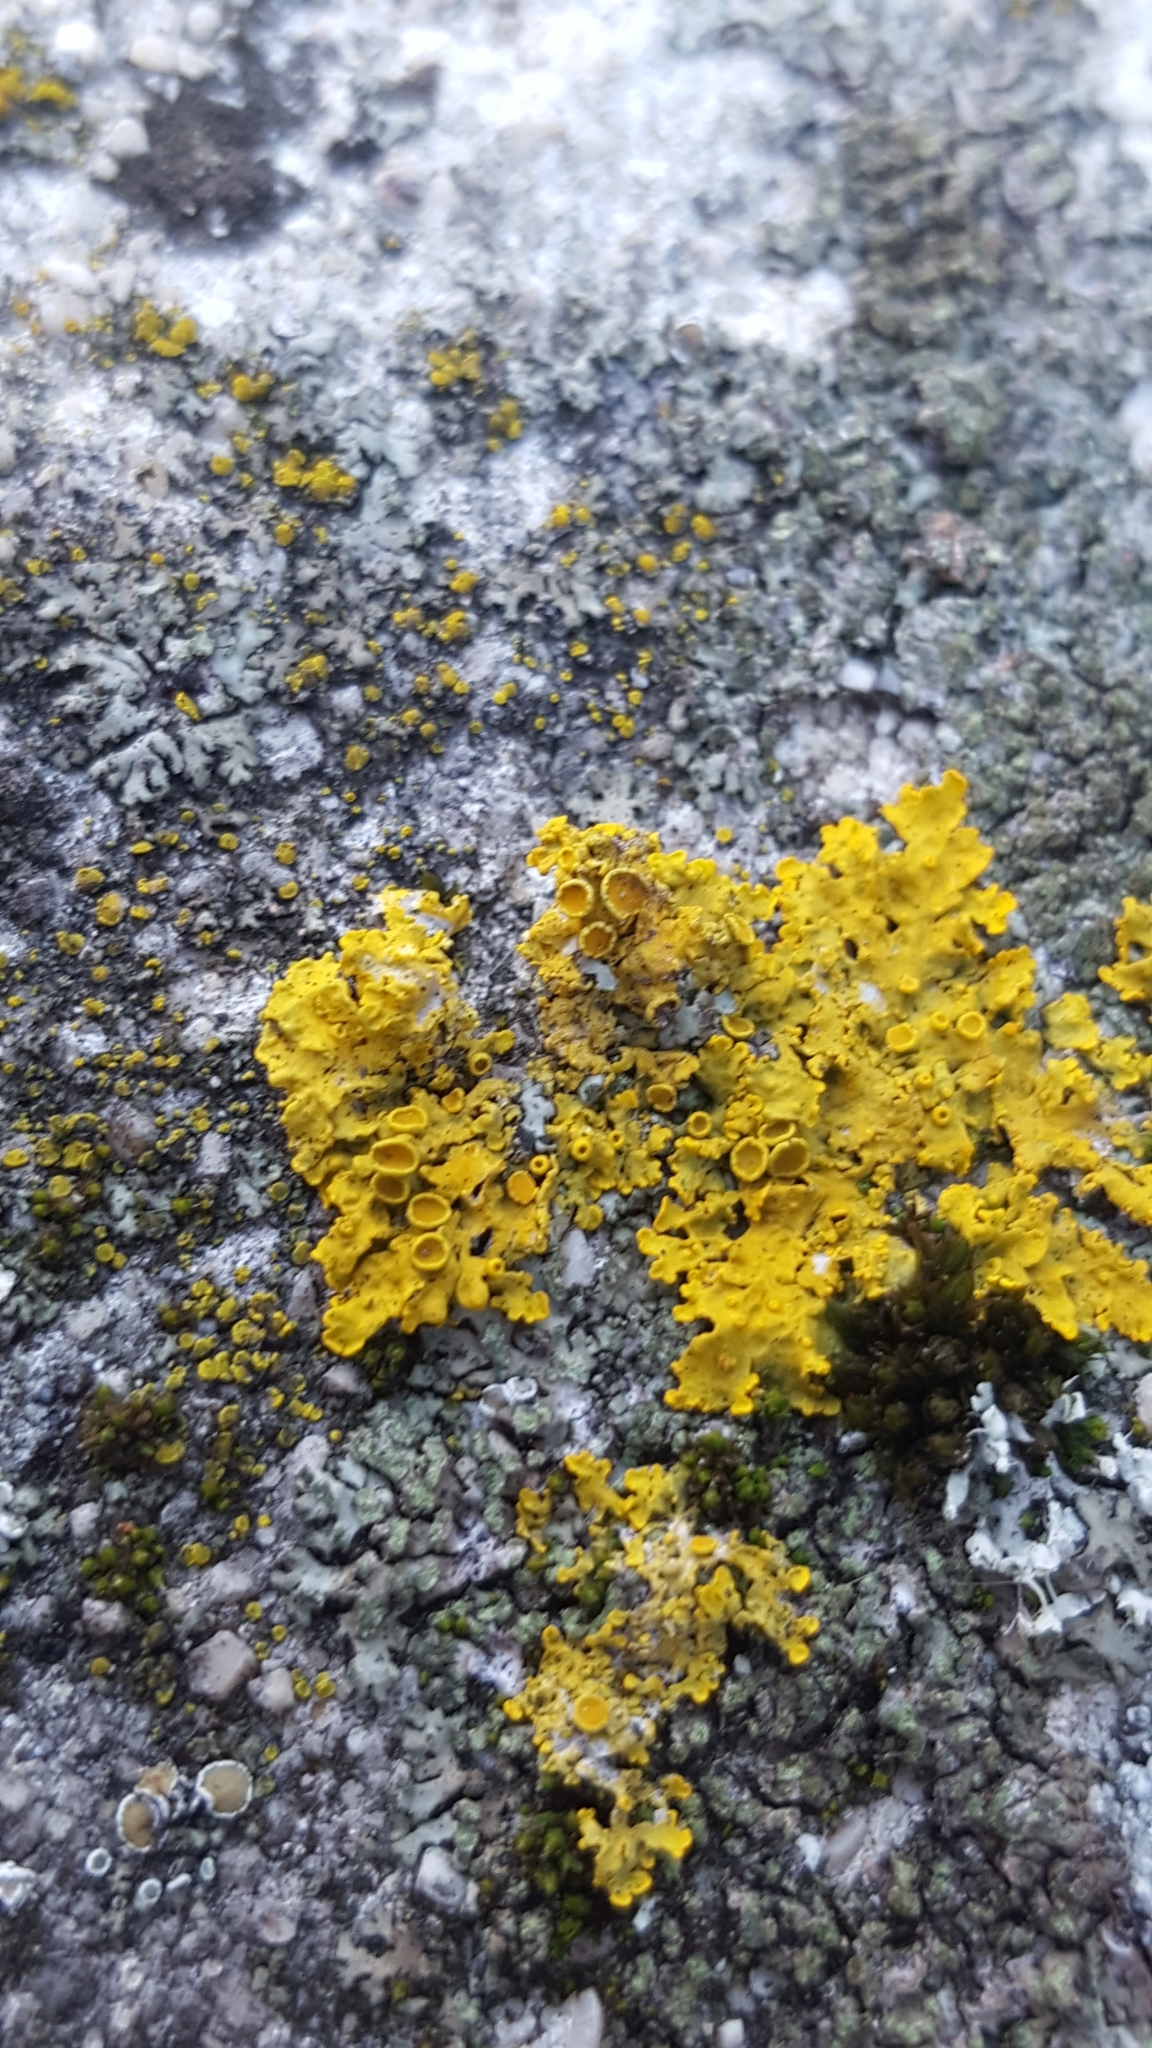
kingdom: Fungi
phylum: Ascomycota
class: Lecanoromycetes
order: Teloschistales
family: Teloschistaceae
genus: Xanthoria
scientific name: Xanthoria parietina
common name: Common orange lichen
